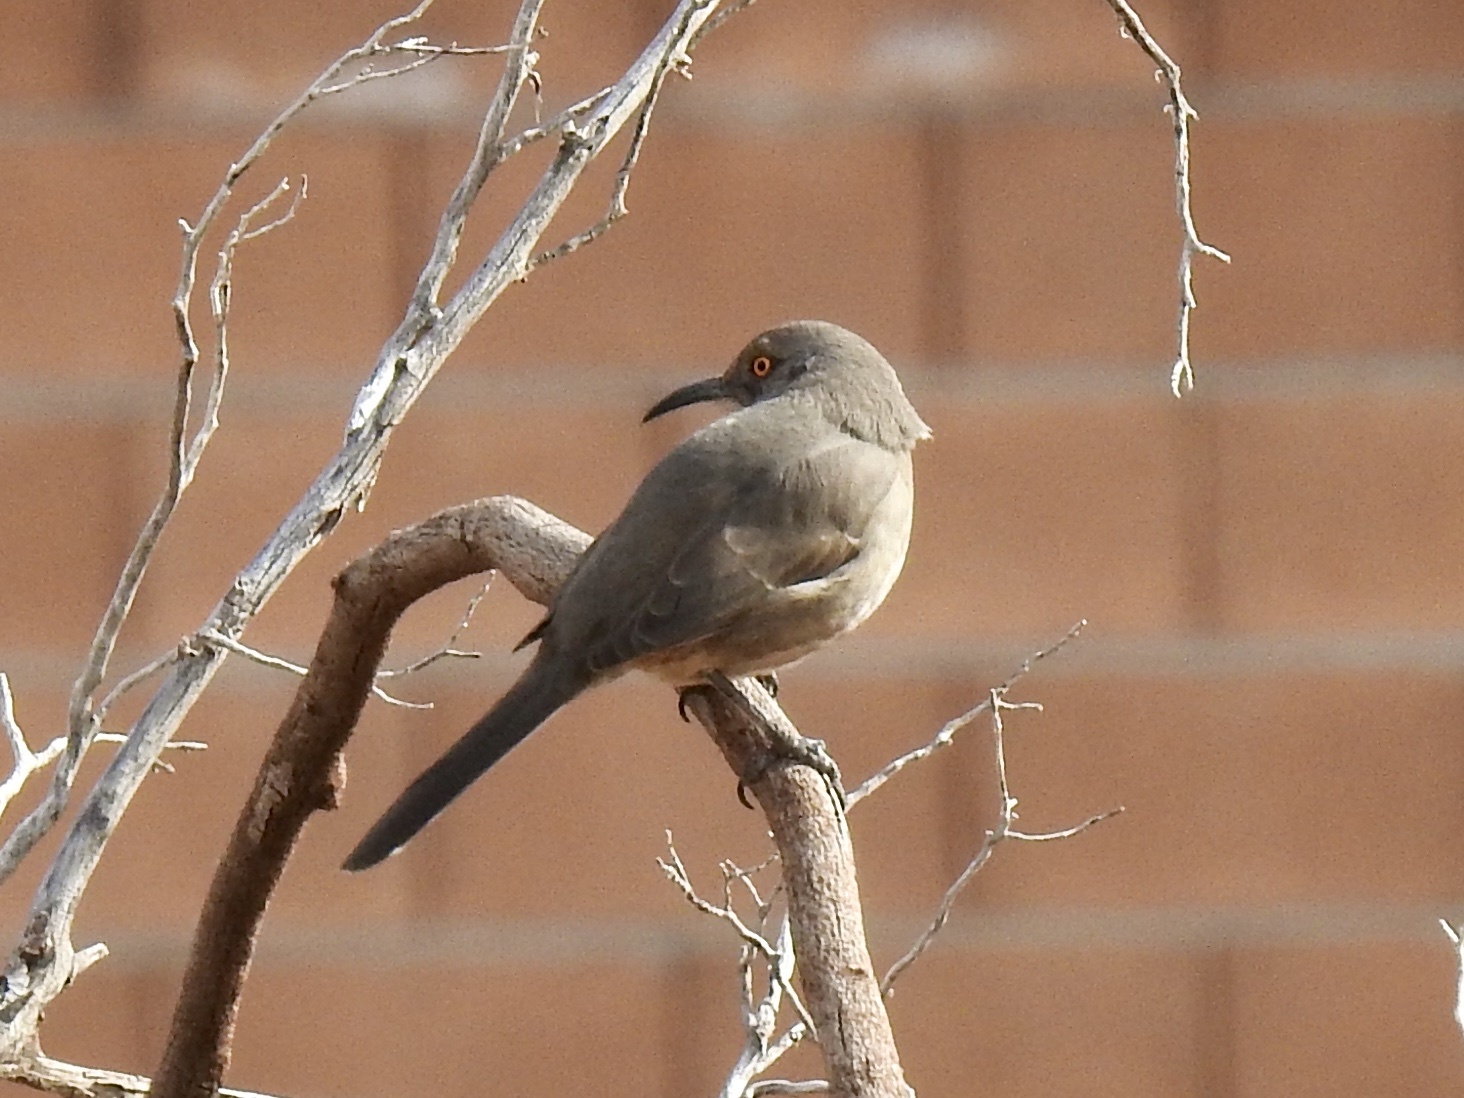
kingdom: Animalia
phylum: Chordata
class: Aves
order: Passeriformes
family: Mimidae
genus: Toxostoma
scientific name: Toxostoma curvirostre
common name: Curve-billed thrasher
